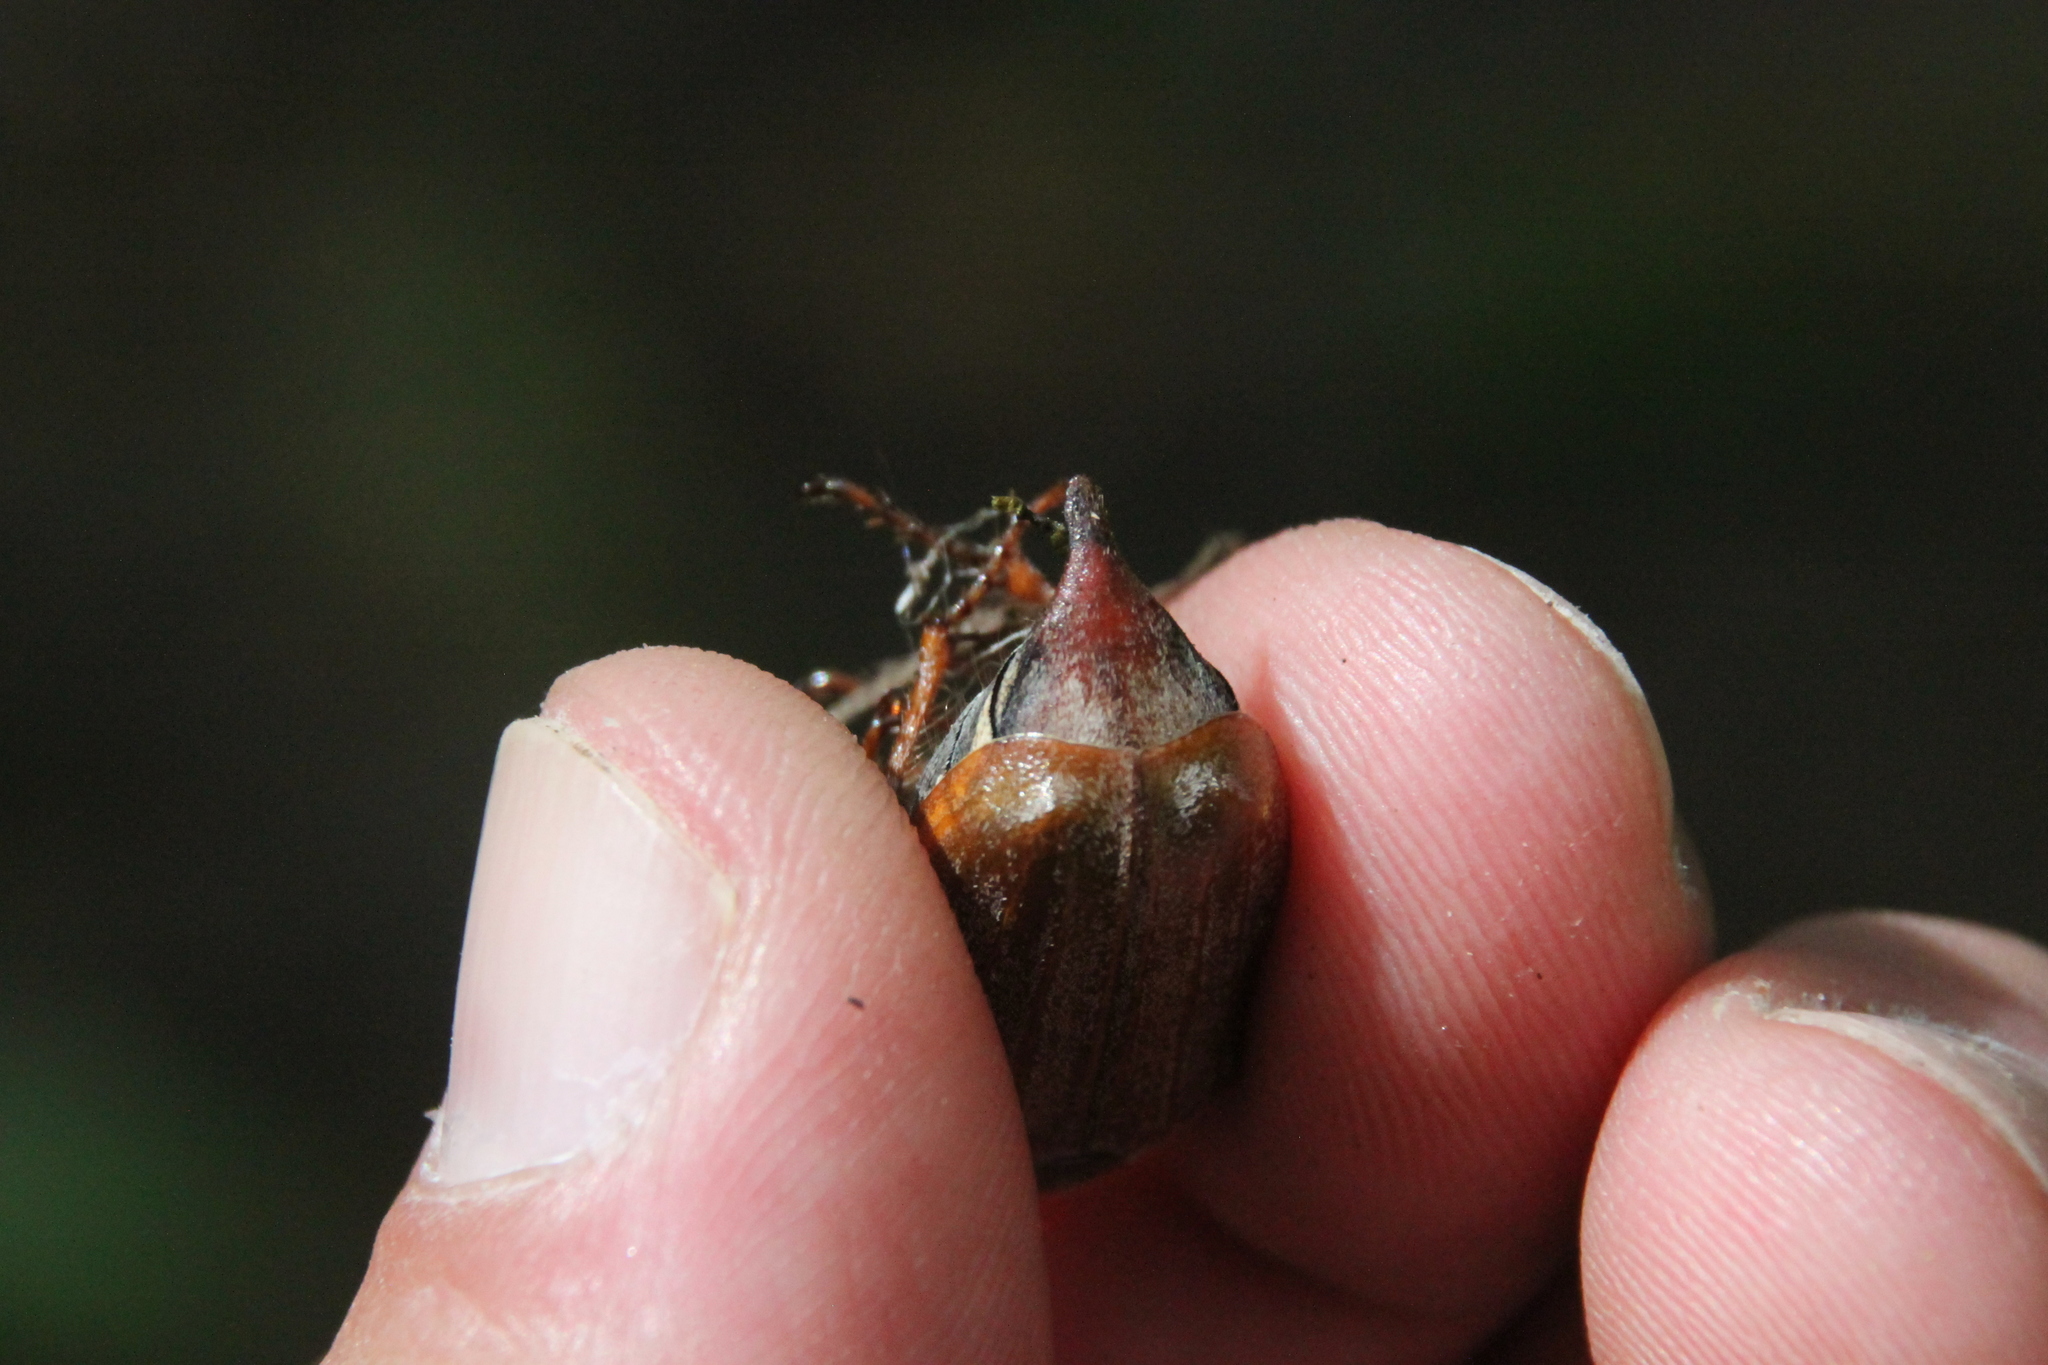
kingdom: Animalia
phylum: Arthropoda
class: Insecta
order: Coleoptera
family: Scarabaeidae
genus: Melolontha
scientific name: Melolontha melolontha
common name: Cockchafer maybeetle
